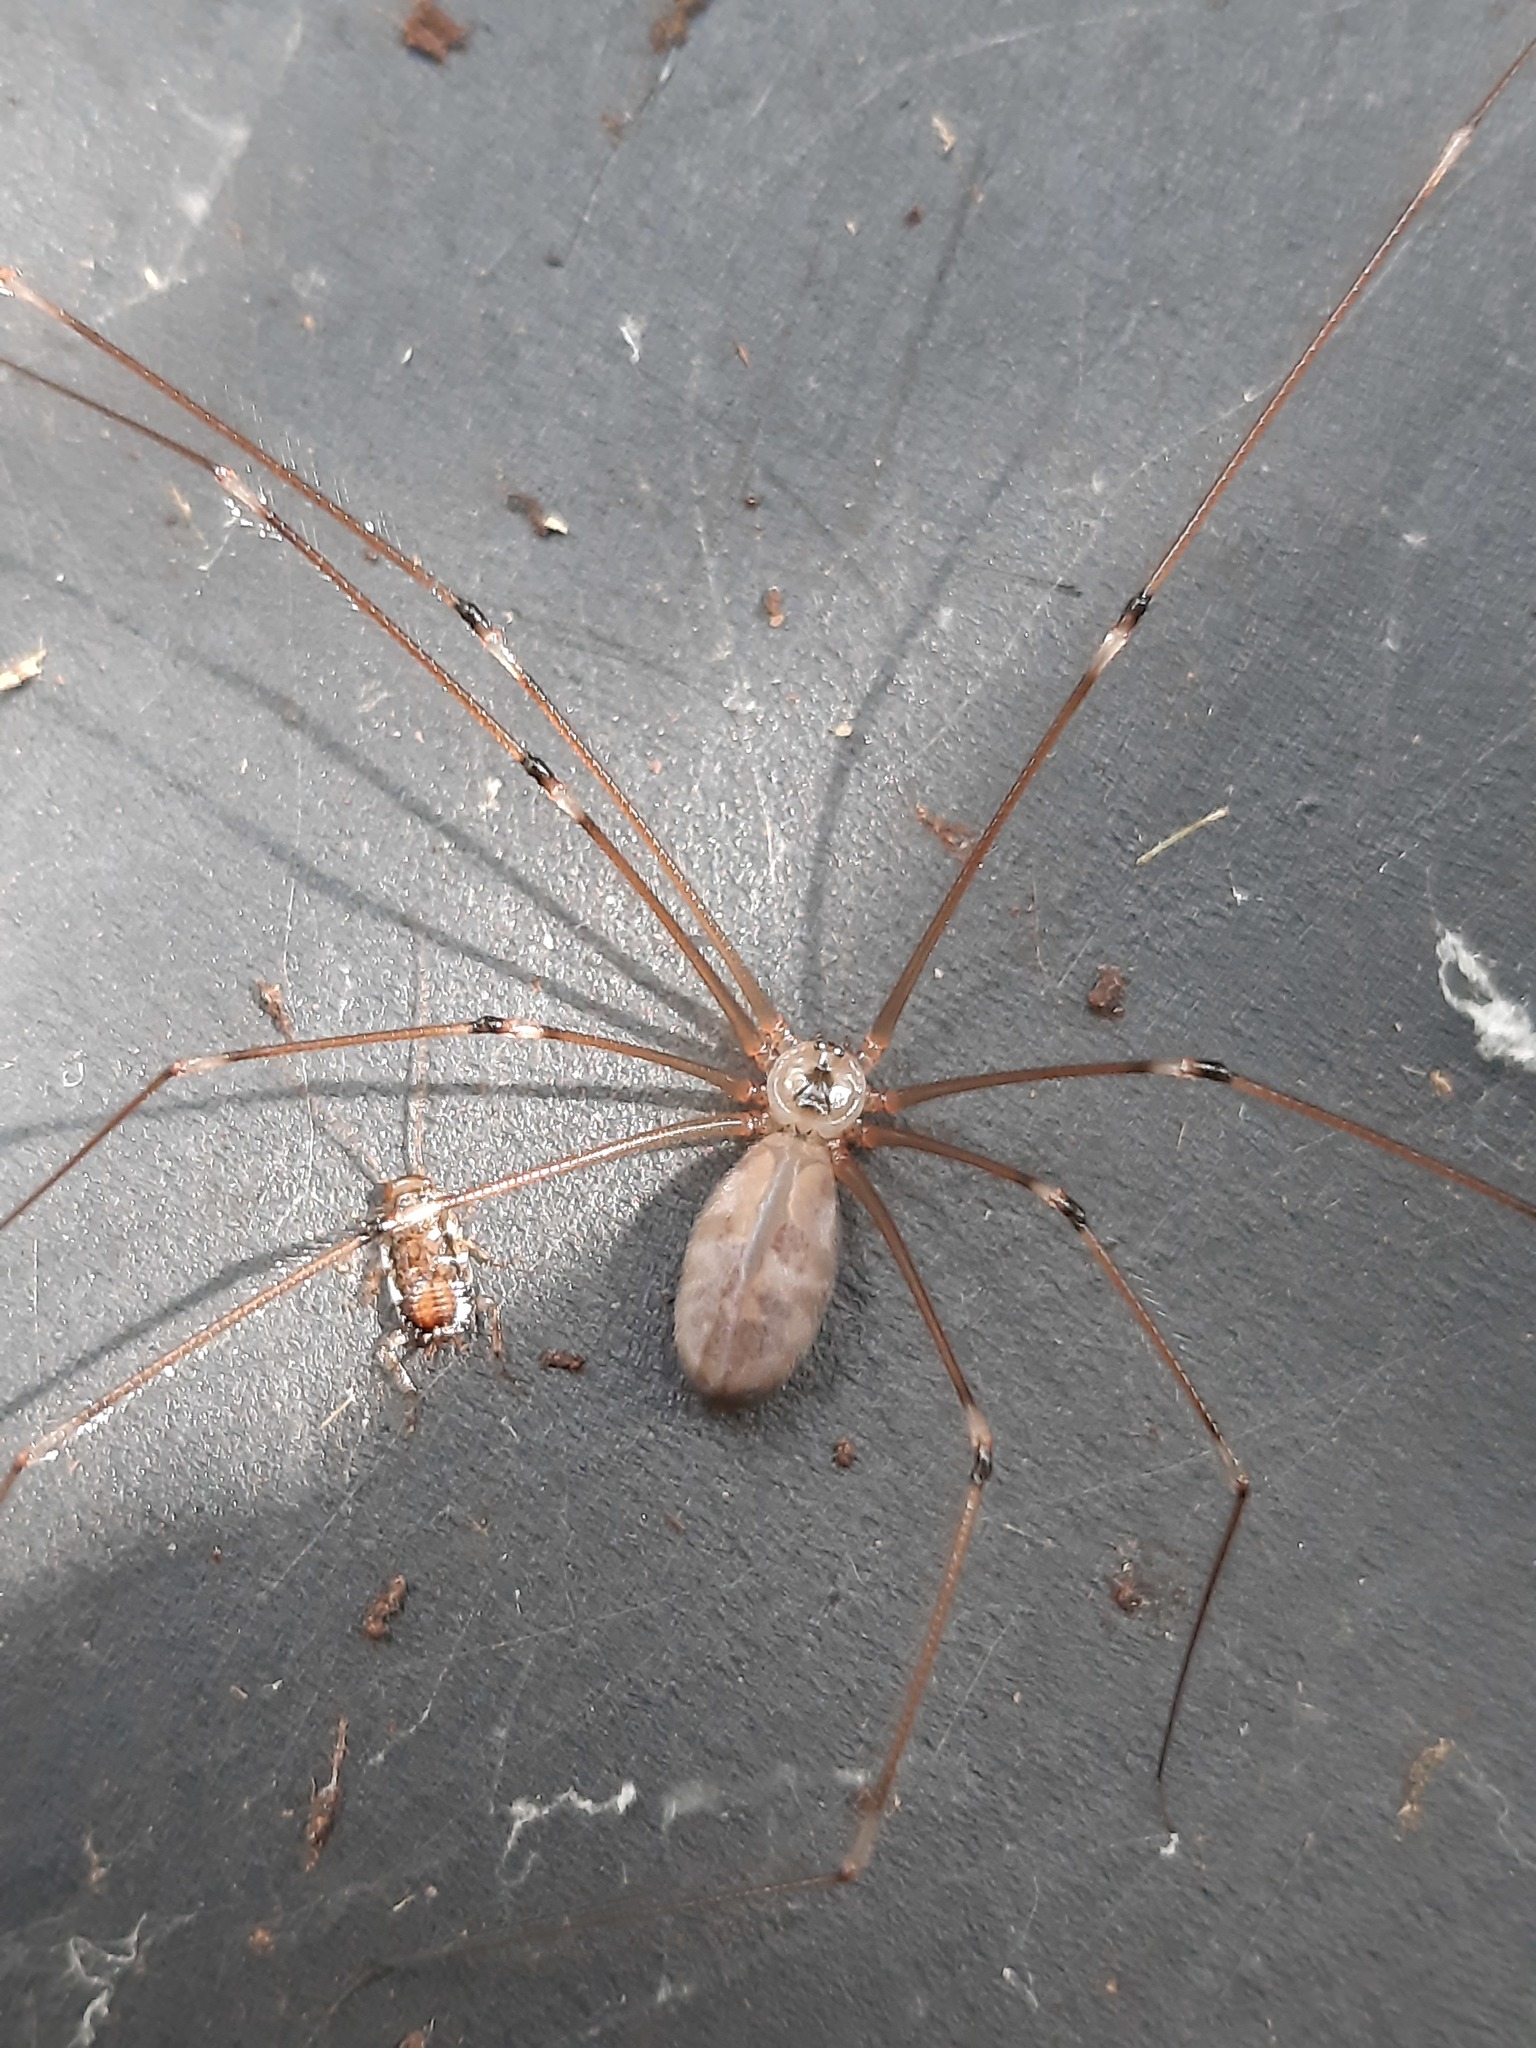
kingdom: Animalia
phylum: Arthropoda
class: Arachnida
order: Araneae
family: Pholcidae
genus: Pholcus
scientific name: Pholcus phalangioides
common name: Longbodied cellar spider
